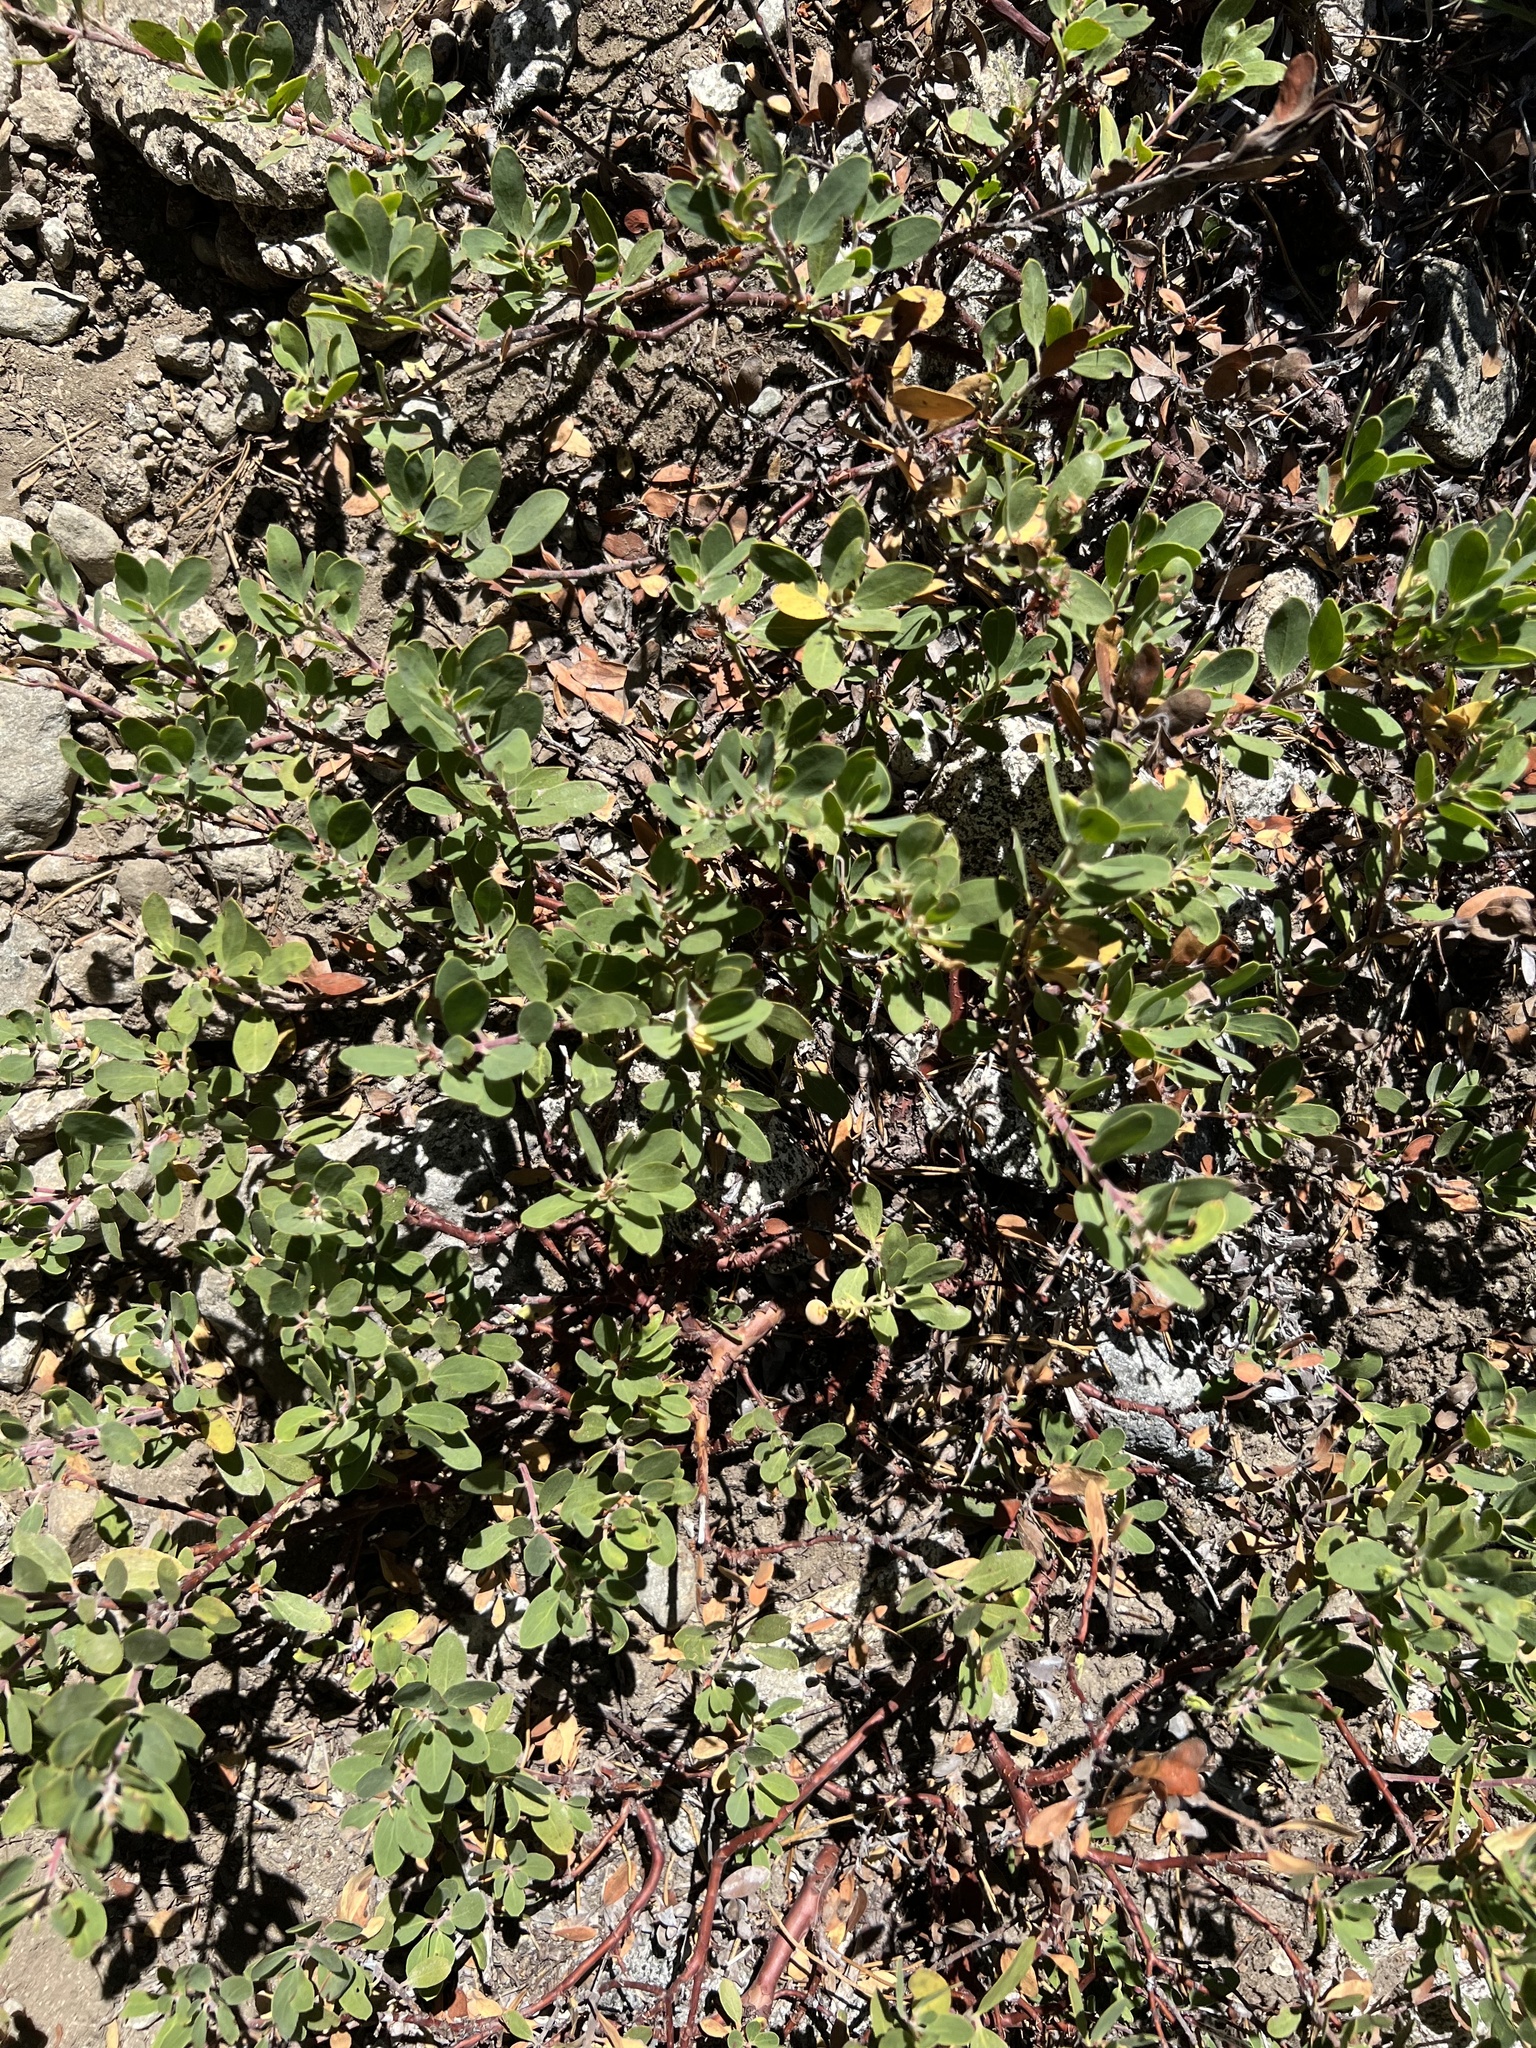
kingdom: Plantae
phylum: Tracheophyta
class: Magnoliopsida
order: Ericales
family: Ericaceae
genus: Arctostaphylos
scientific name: Arctostaphylos nevadensis
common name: Pinemat manzanita
